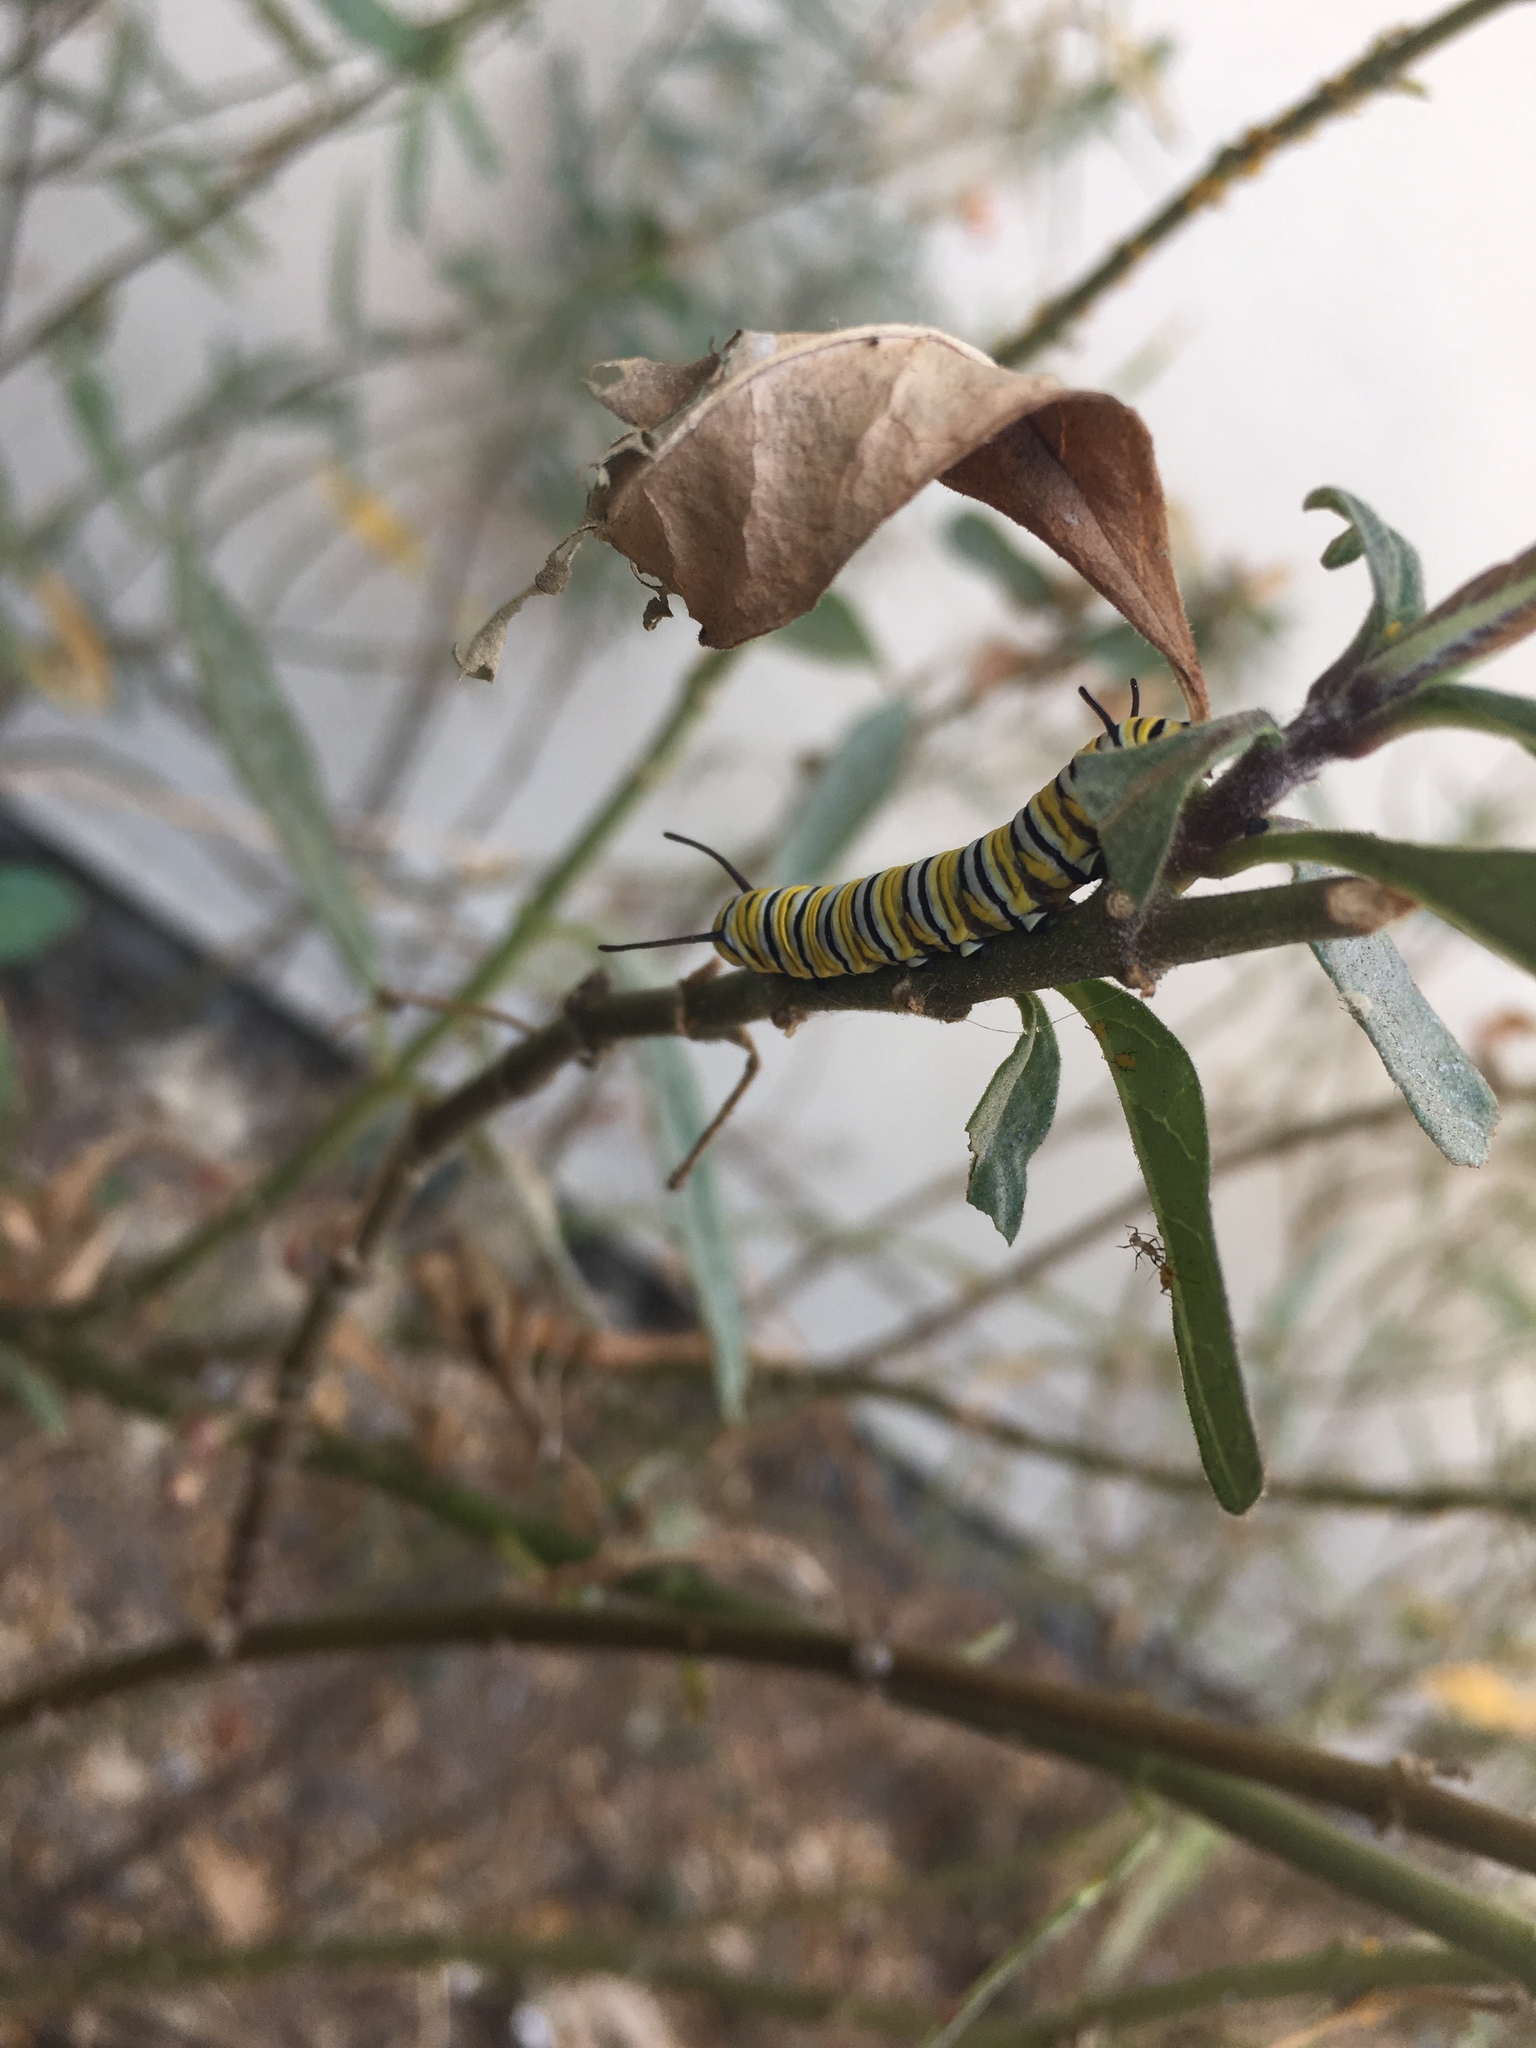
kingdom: Animalia
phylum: Arthropoda
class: Insecta
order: Lepidoptera
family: Nymphalidae
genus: Danaus
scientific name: Danaus plexippus
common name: Monarch
